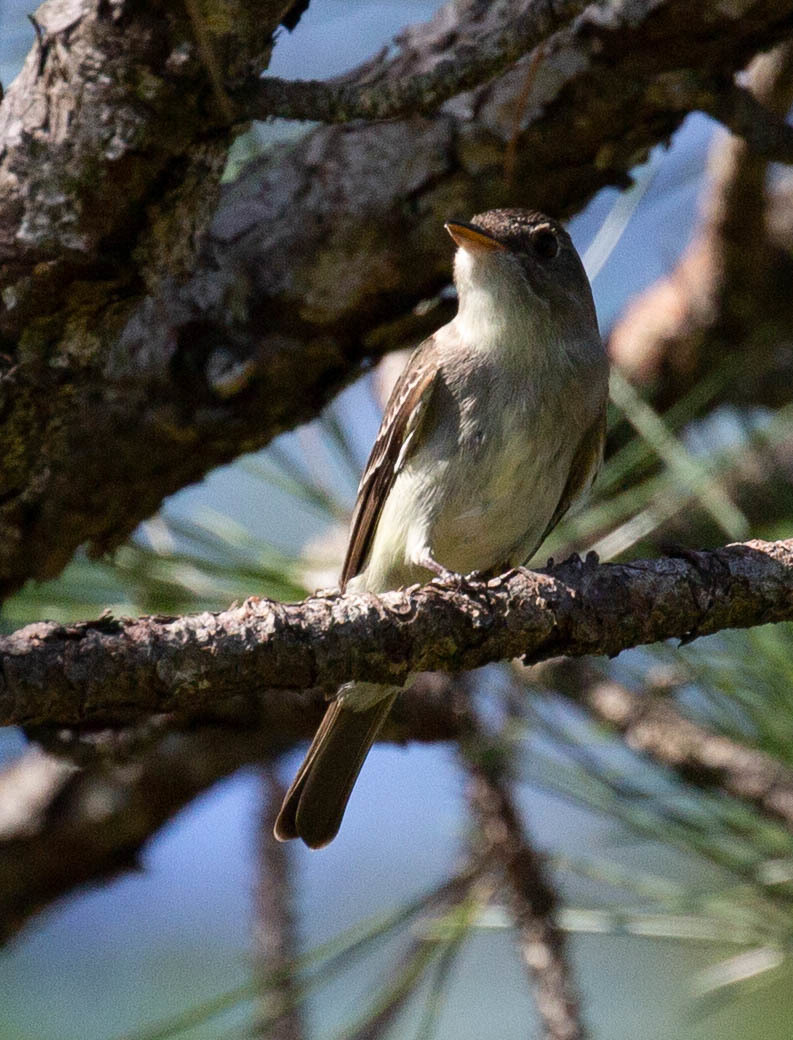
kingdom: Animalia
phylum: Chordata
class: Aves
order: Passeriformes
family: Tyrannidae
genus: Contopus
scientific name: Contopus virens
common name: Eastern wood-pewee
